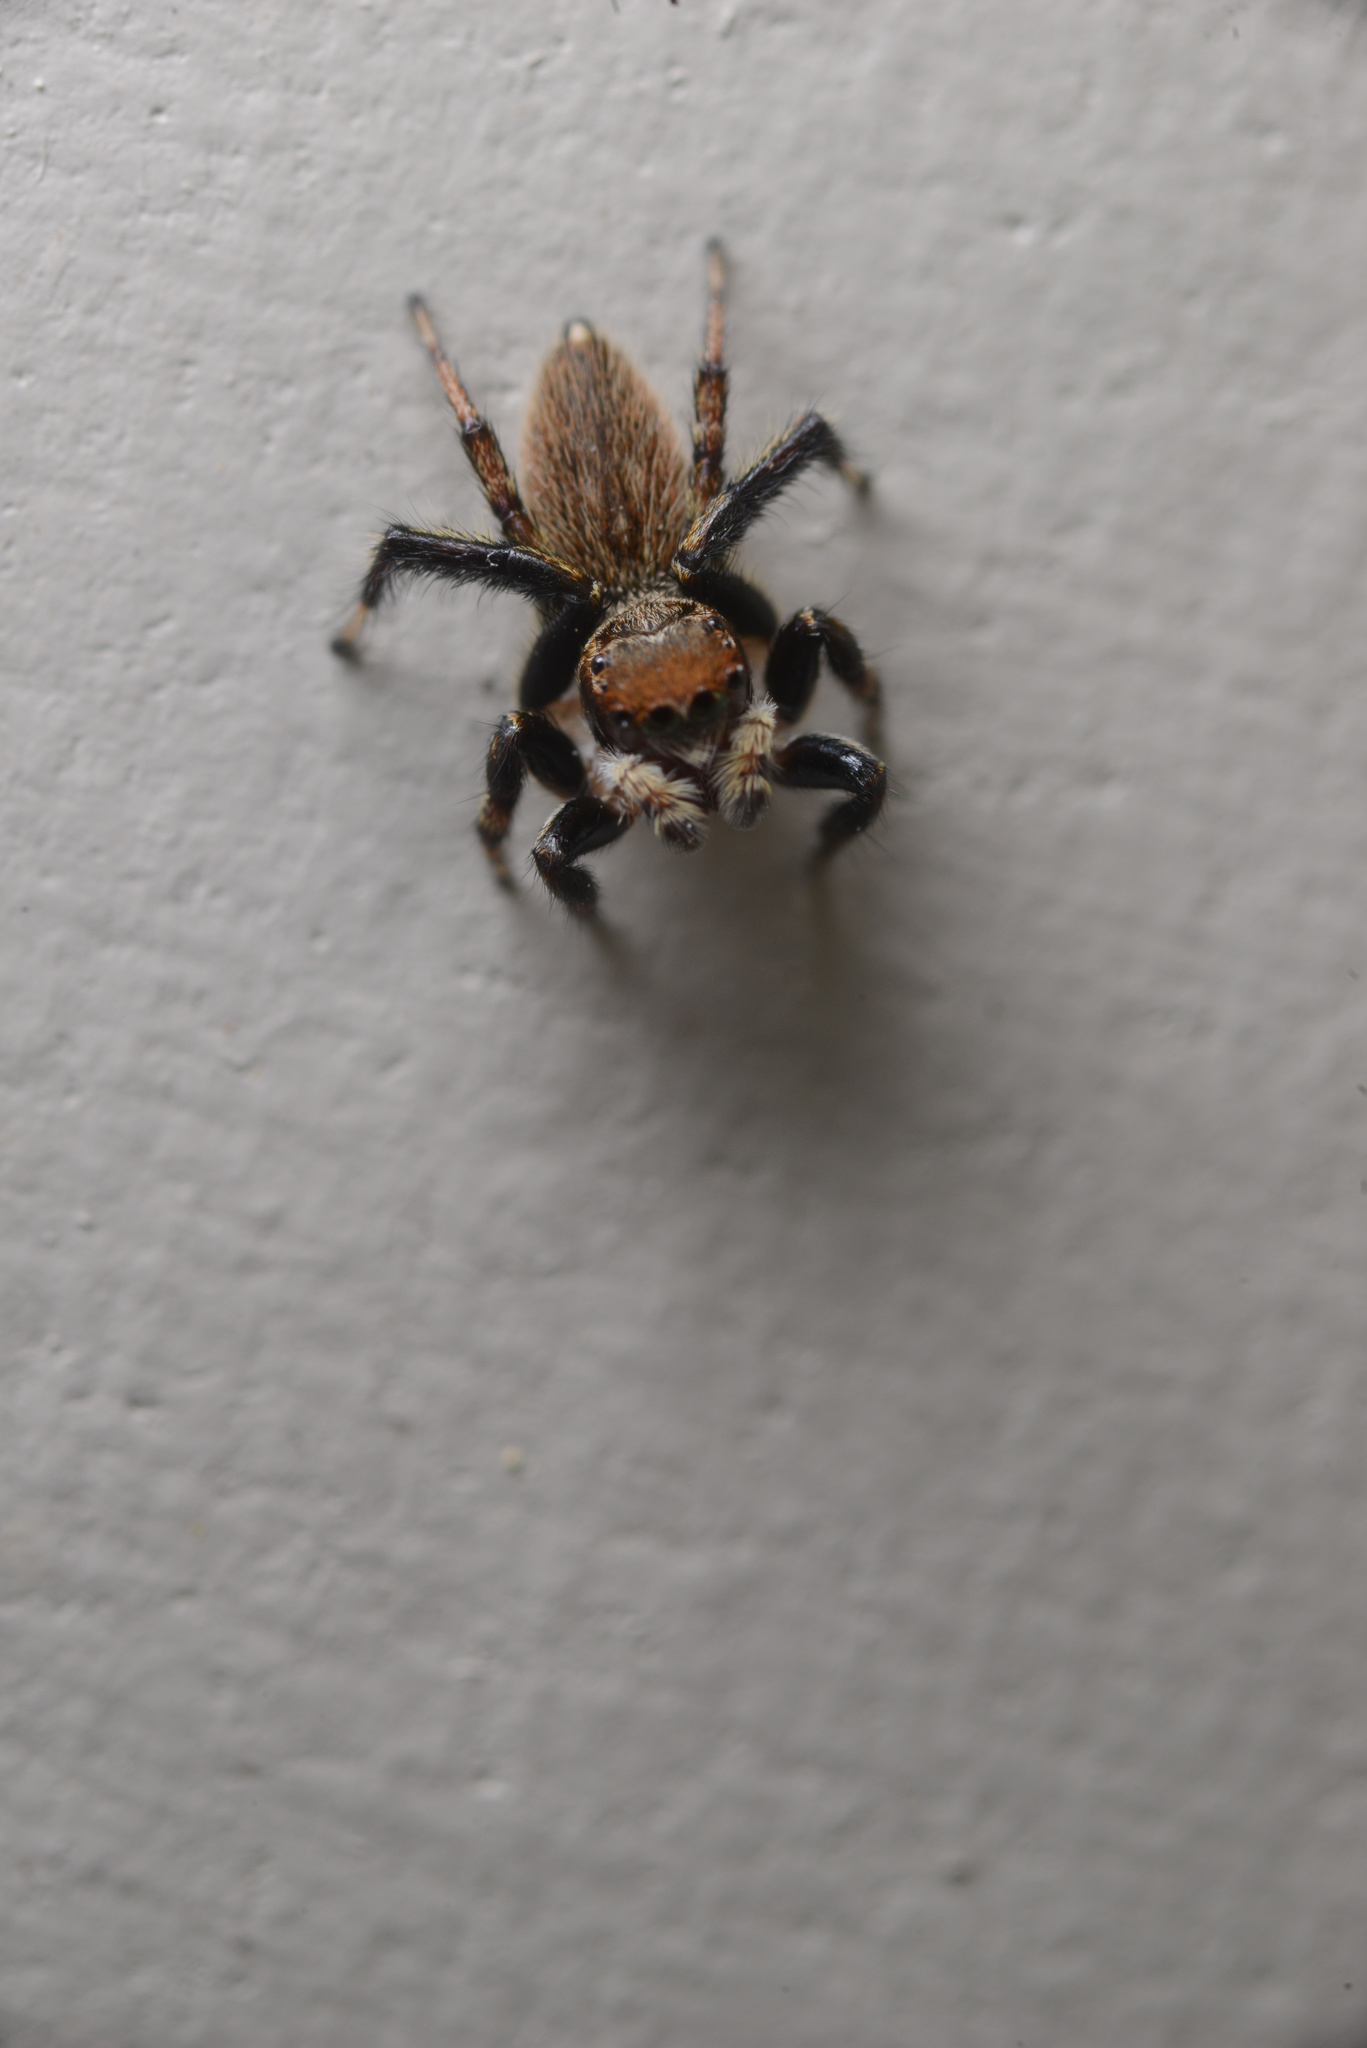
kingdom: Animalia
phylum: Arthropoda
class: Arachnida
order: Araneae
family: Salticidae
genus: Maratus
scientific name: Maratus griseus
